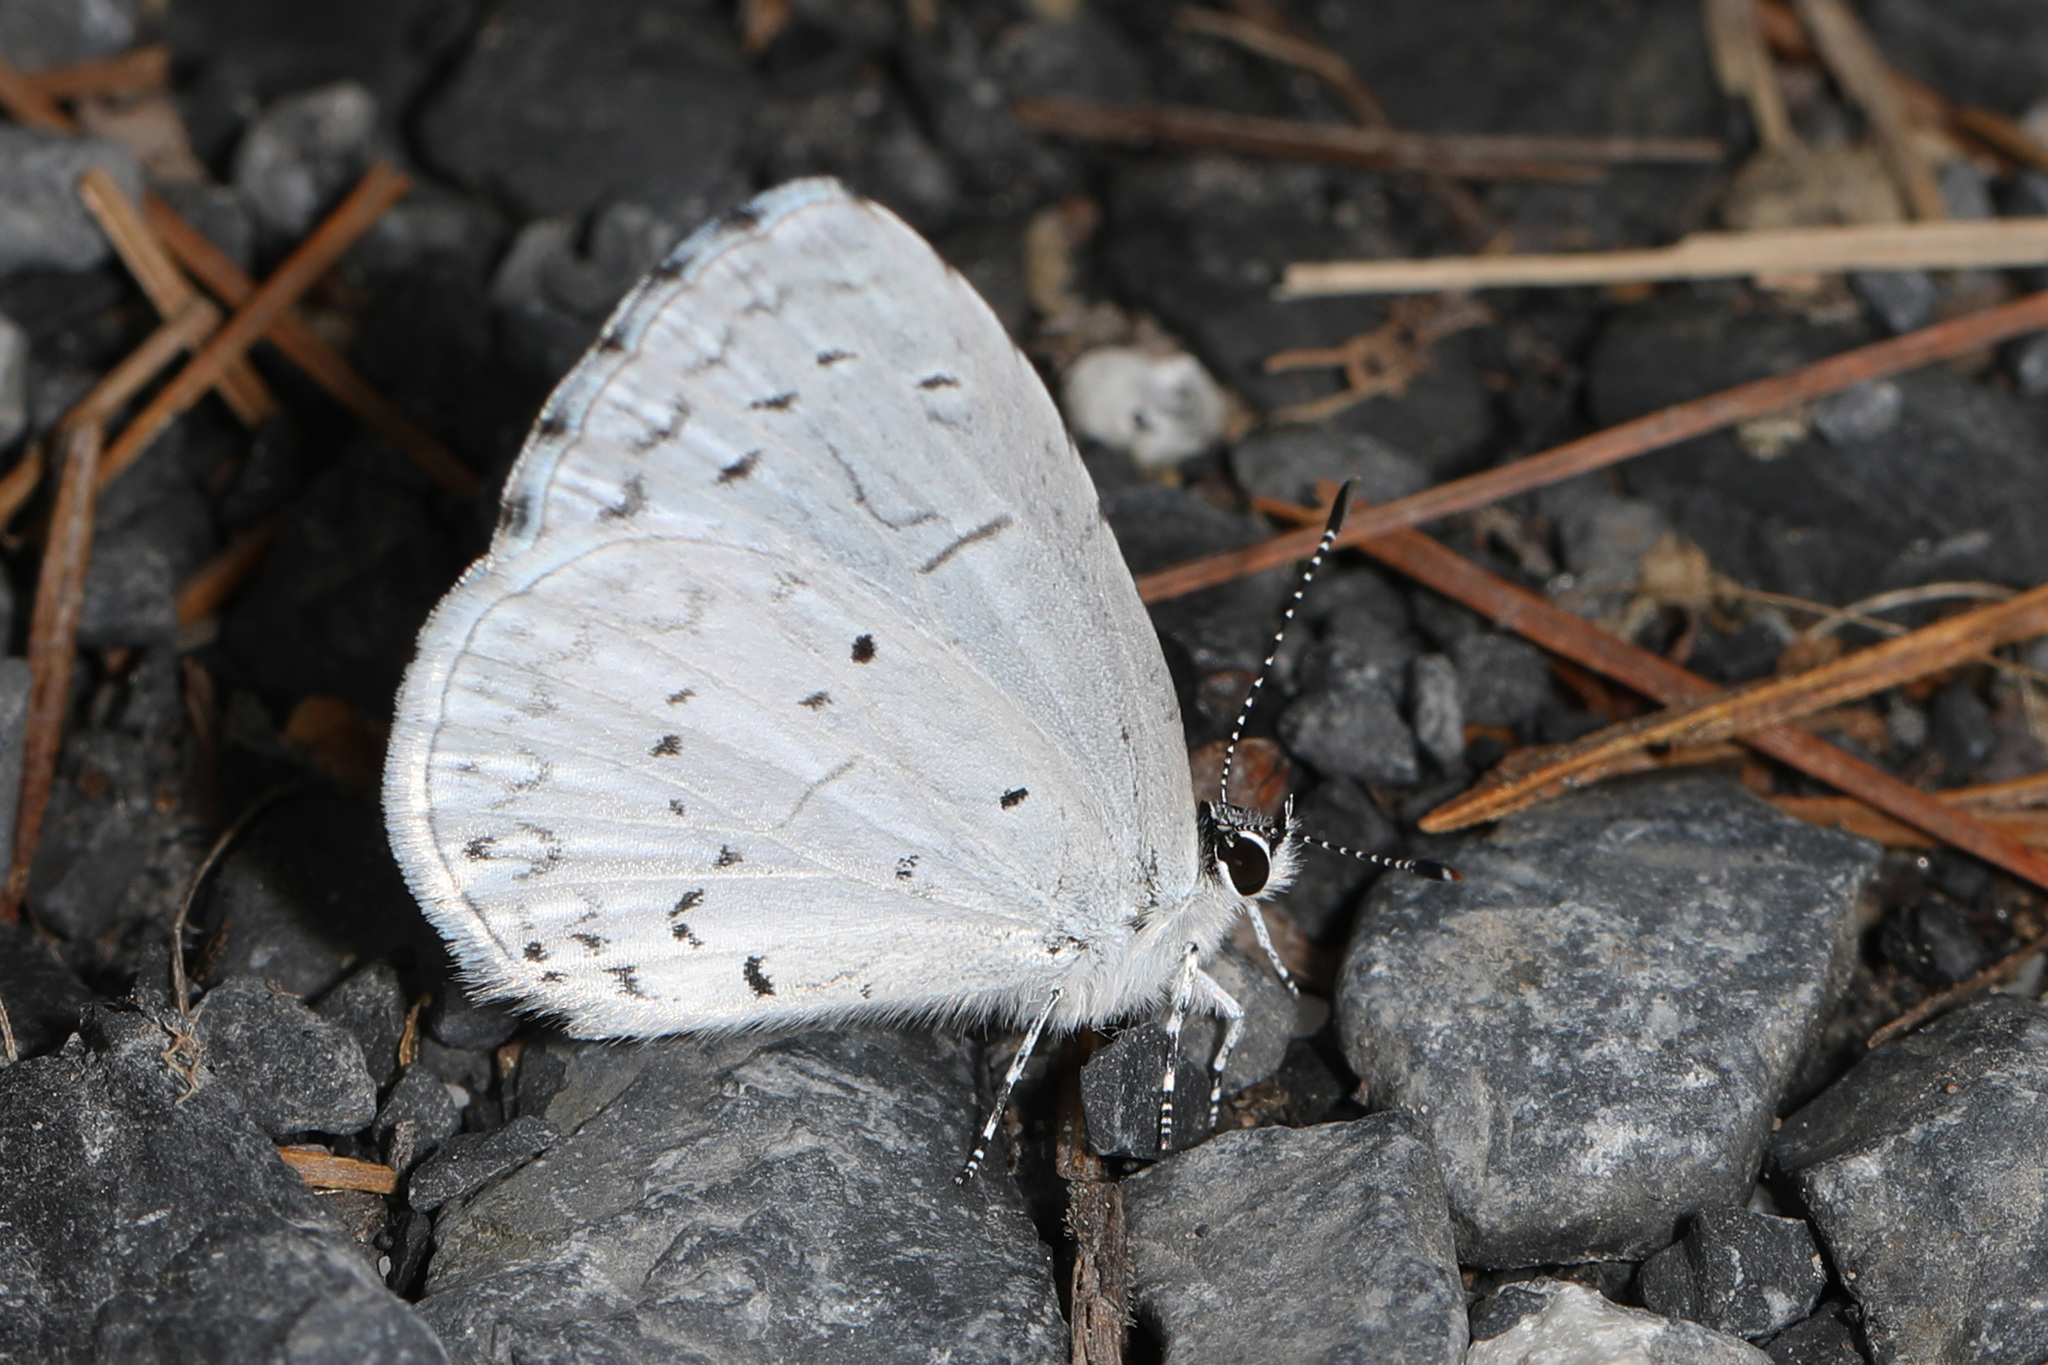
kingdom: Animalia
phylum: Arthropoda
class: Insecta
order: Lepidoptera
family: Lycaenidae
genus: Cyaniris
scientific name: Cyaniris neglecta
